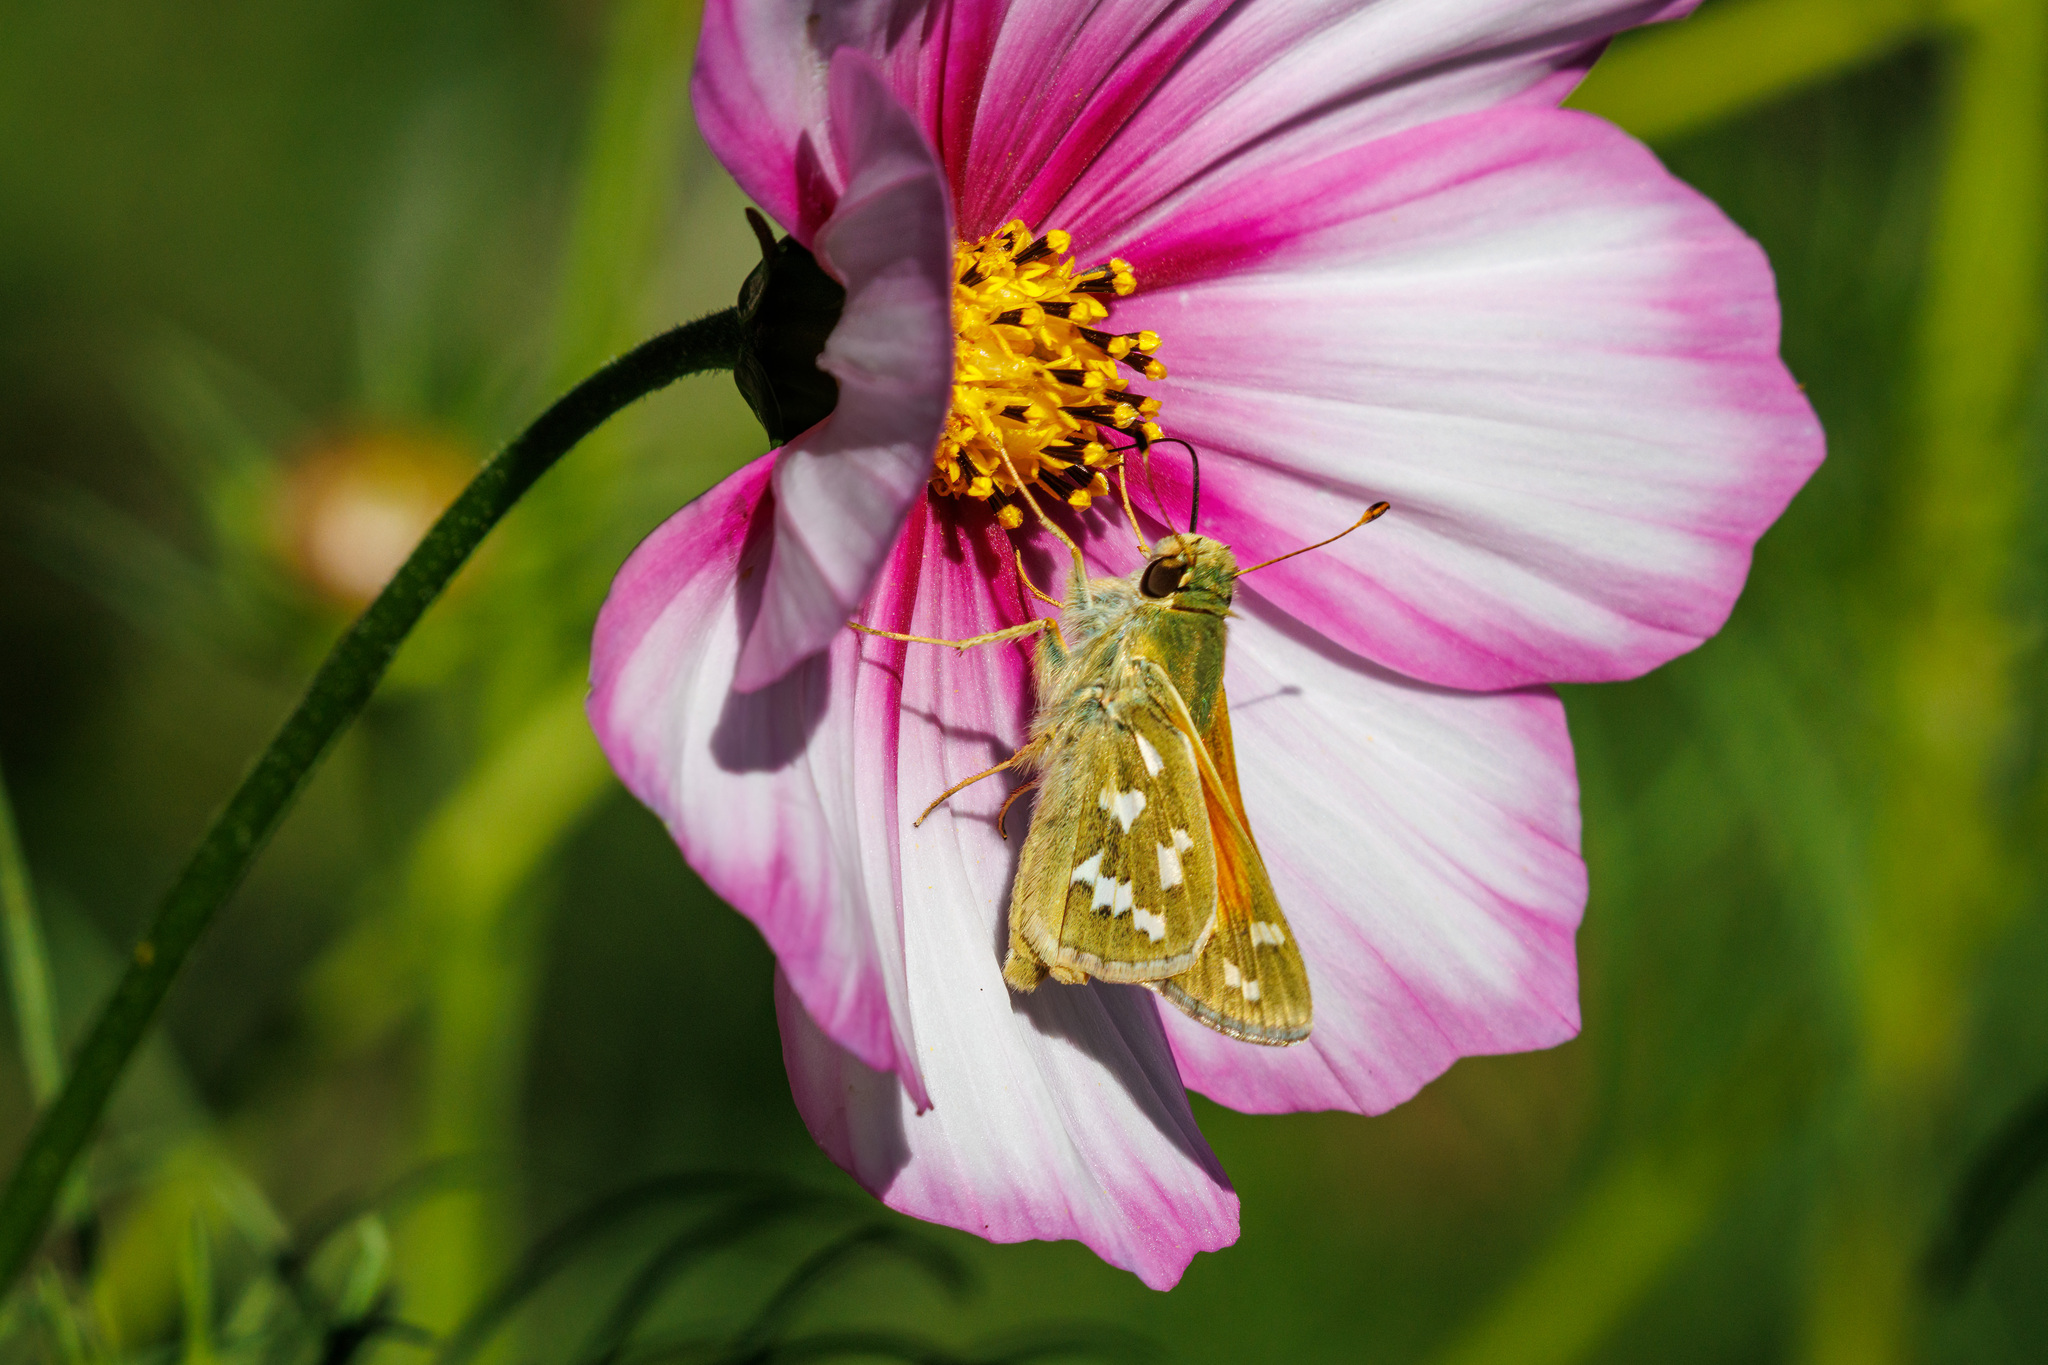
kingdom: Animalia
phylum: Arthropoda
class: Insecta
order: Lepidoptera
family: Hesperiidae
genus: Hesperia
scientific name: Hesperia comma
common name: Common branded skipper
